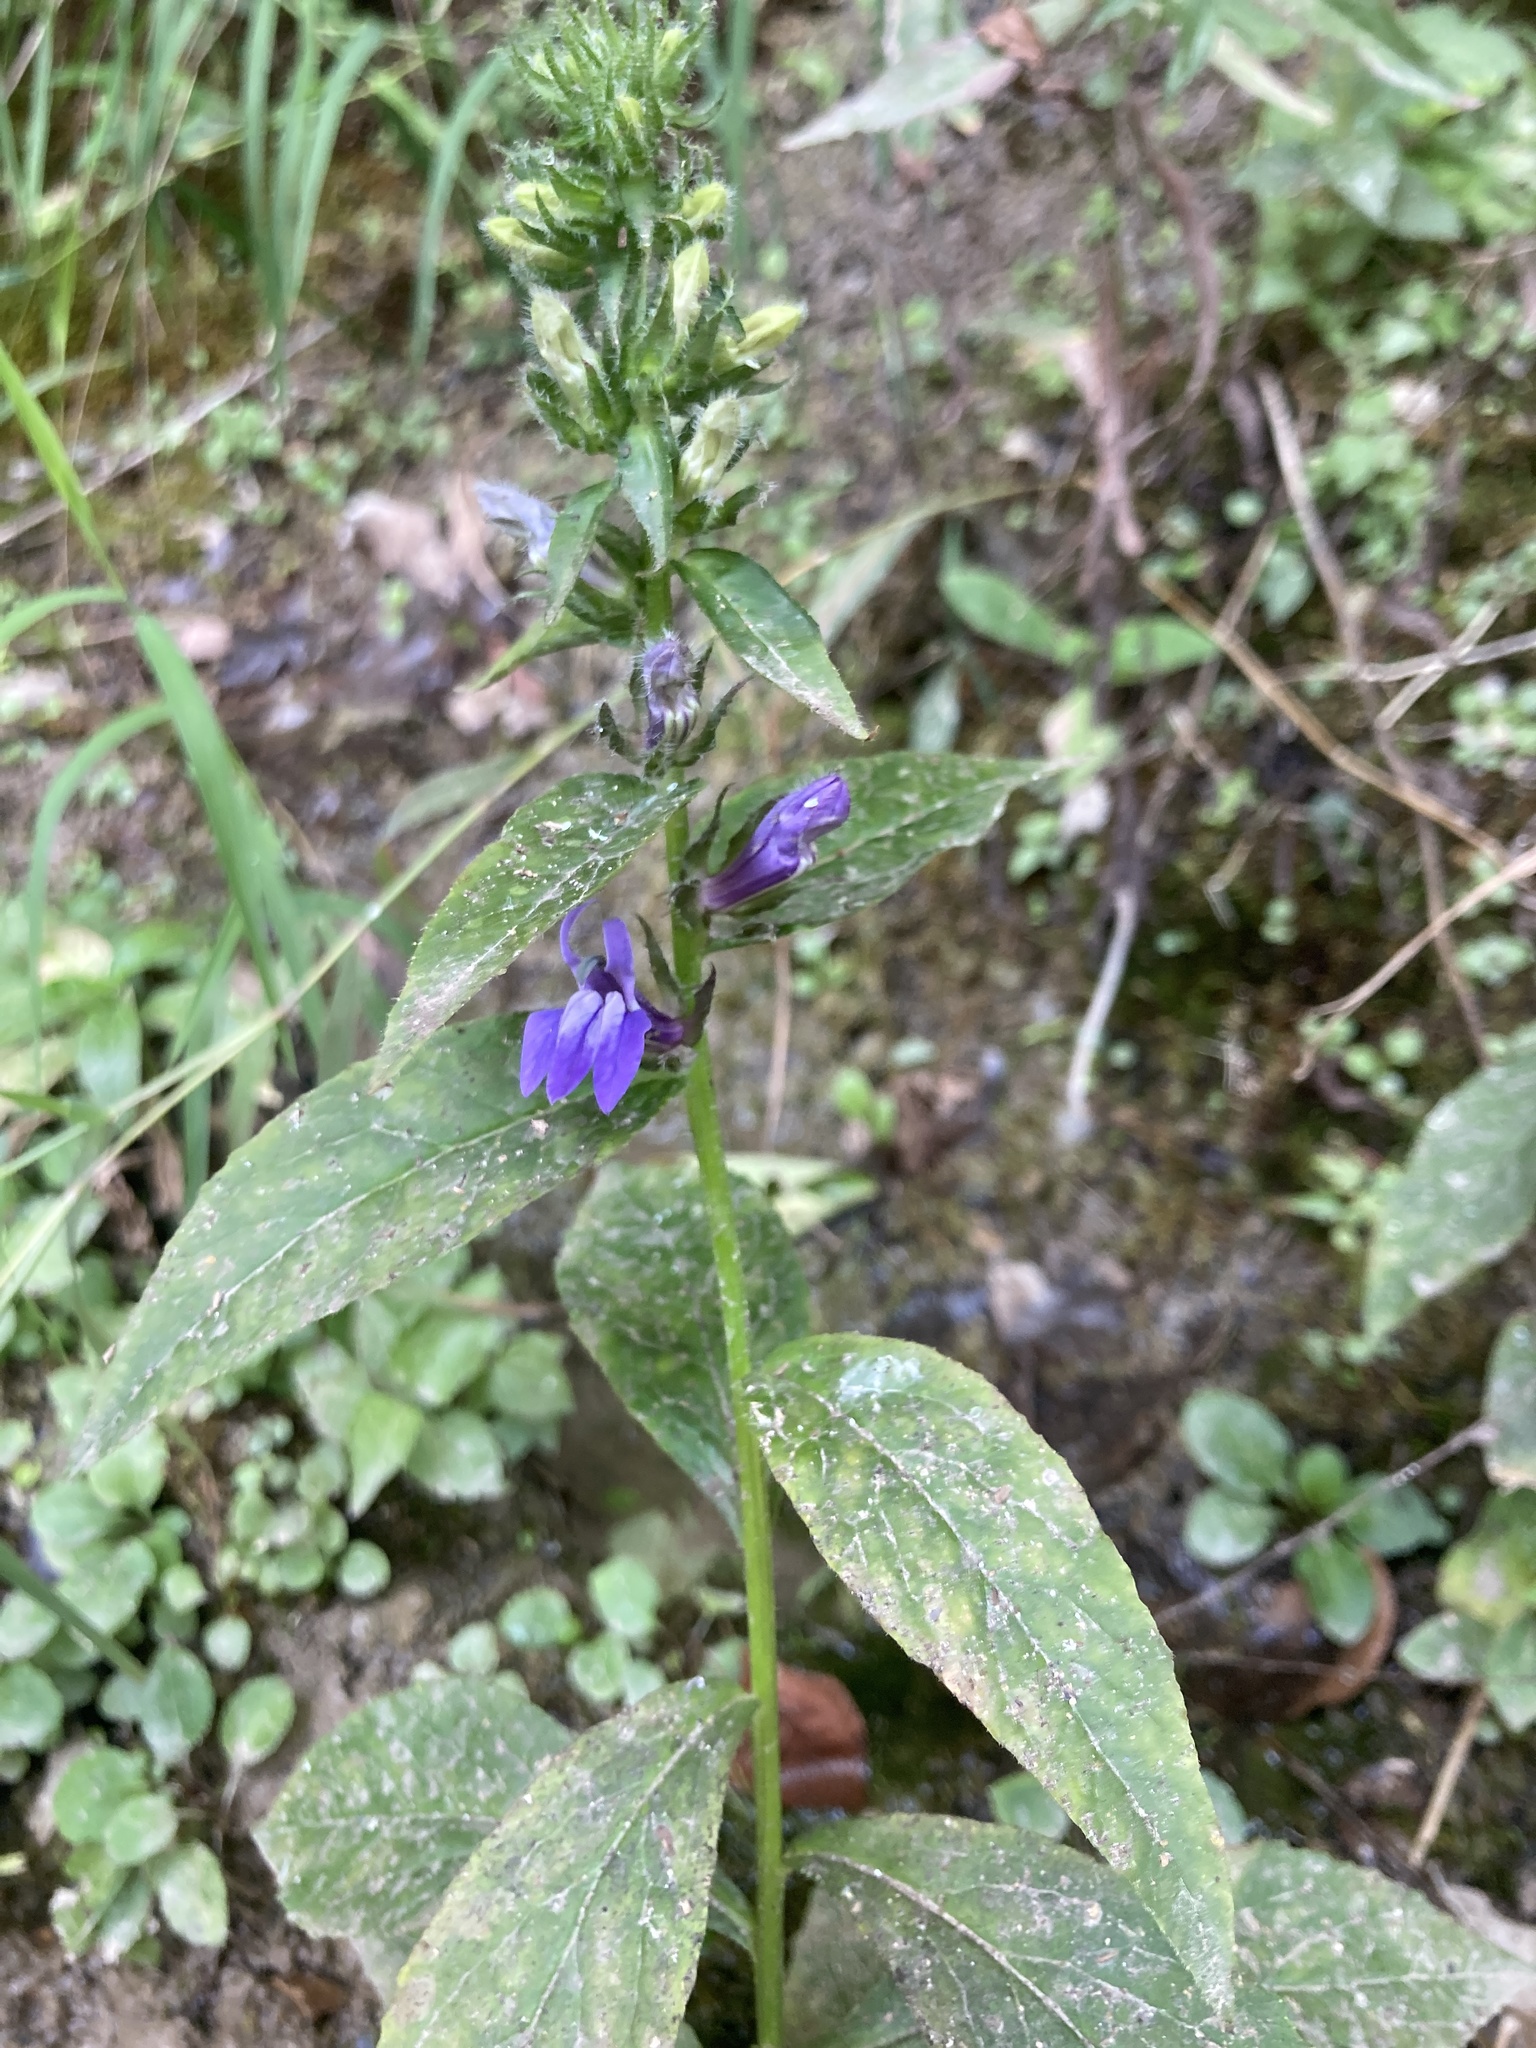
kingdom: Plantae
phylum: Tracheophyta
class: Magnoliopsida
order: Asterales
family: Campanulaceae
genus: Lobelia
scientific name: Lobelia siphilitica
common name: Great lobelia
